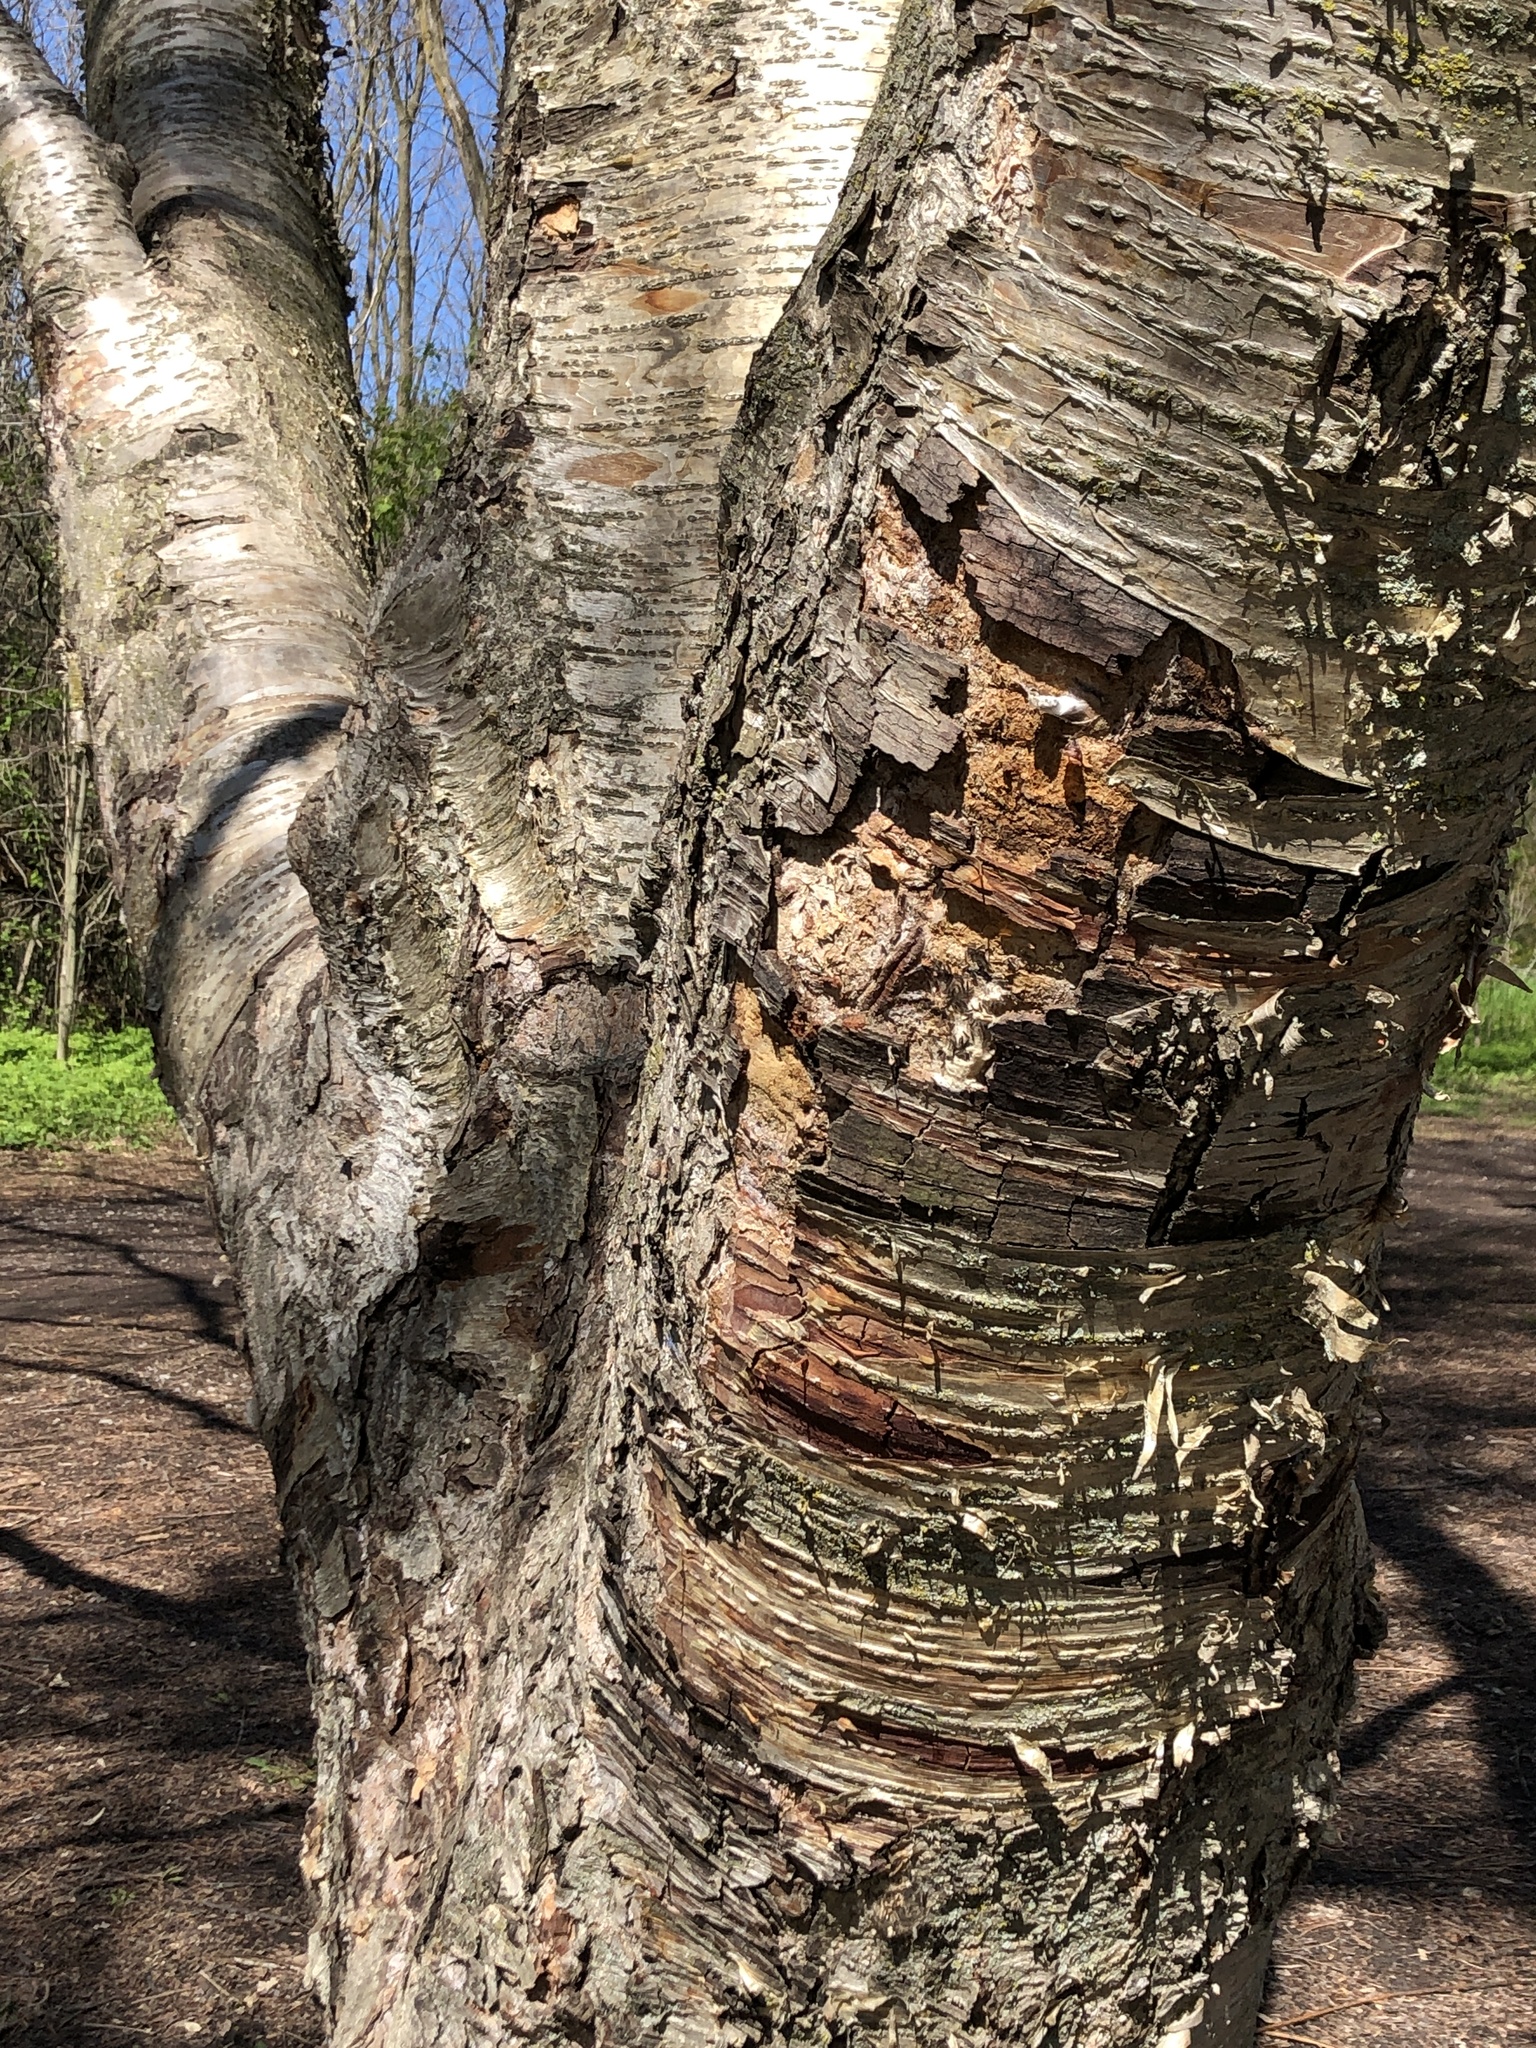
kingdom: Plantae
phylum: Tracheophyta
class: Magnoliopsida
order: Fagales
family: Betulaceae
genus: Betula
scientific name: Betula alleghaniensis
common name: Yellow birch
